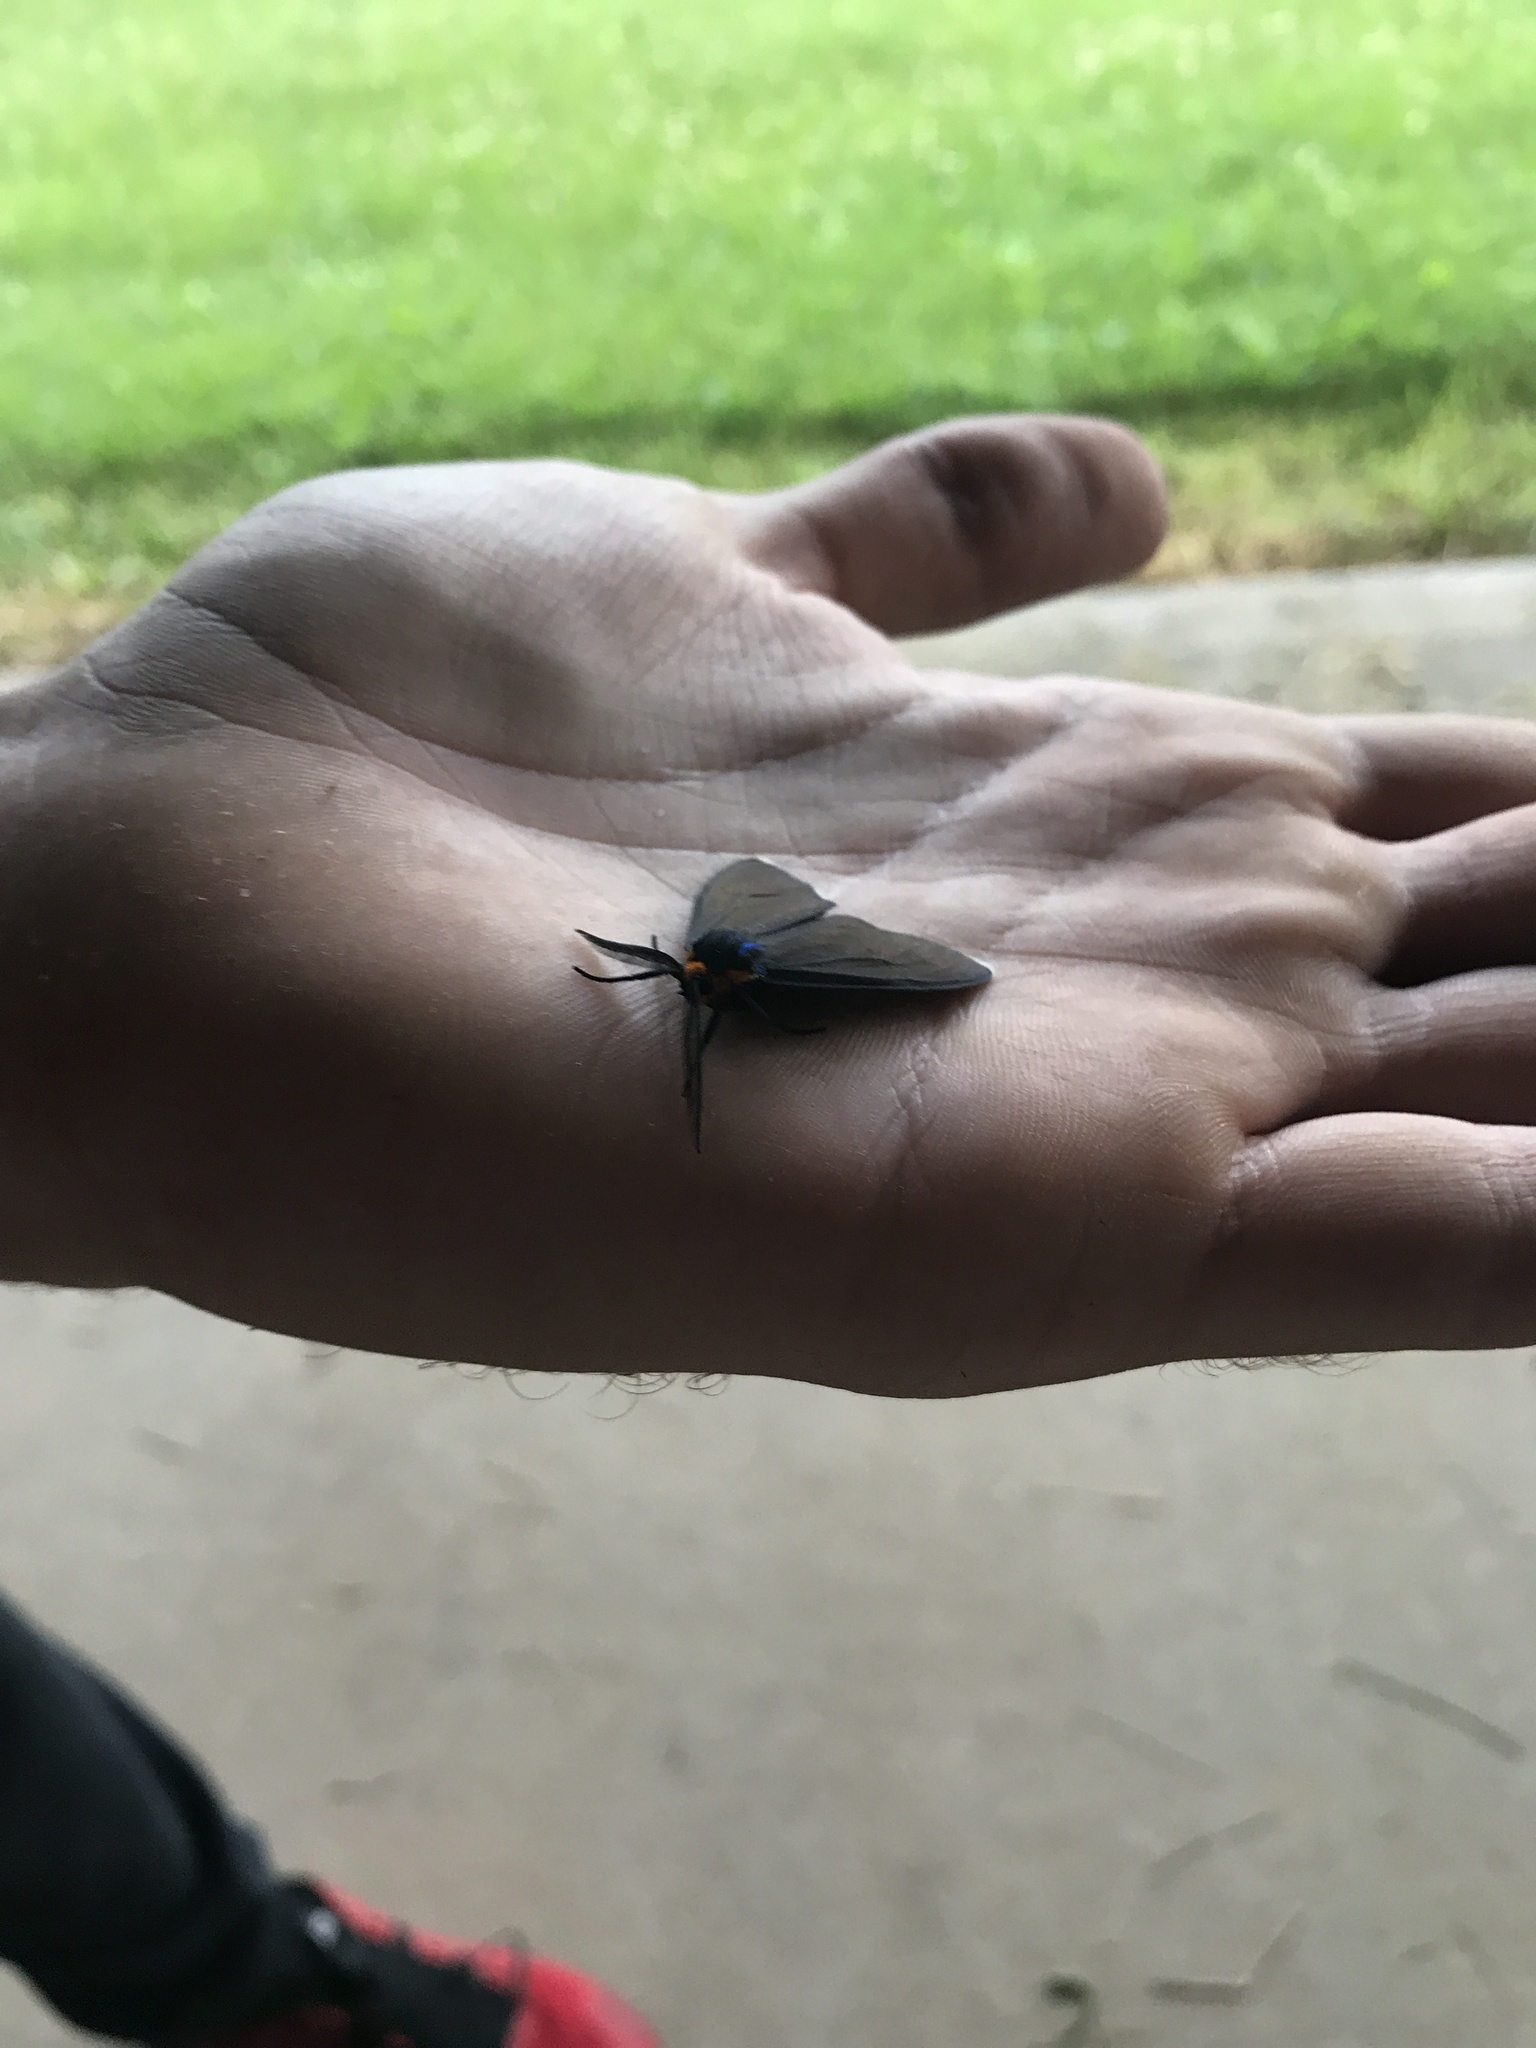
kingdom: Animalia
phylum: Arthropoda
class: Insecta
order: Lepidoptera
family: Erebidae
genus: Ctenucha
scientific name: Ctenucha virginica
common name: Virginia ctenucha moth
